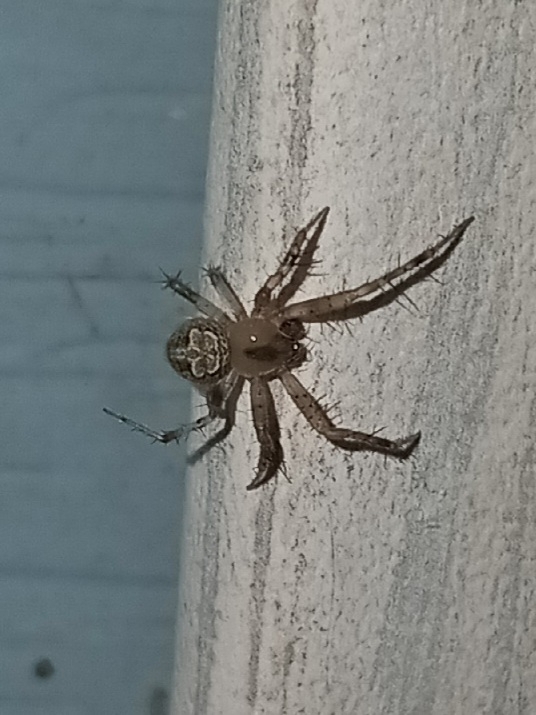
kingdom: Animalia
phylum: Arthropoda
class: Arachnida
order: Araneae
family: Araneidae
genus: Araneus
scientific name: Araneus pegnia
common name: Orb weavers
